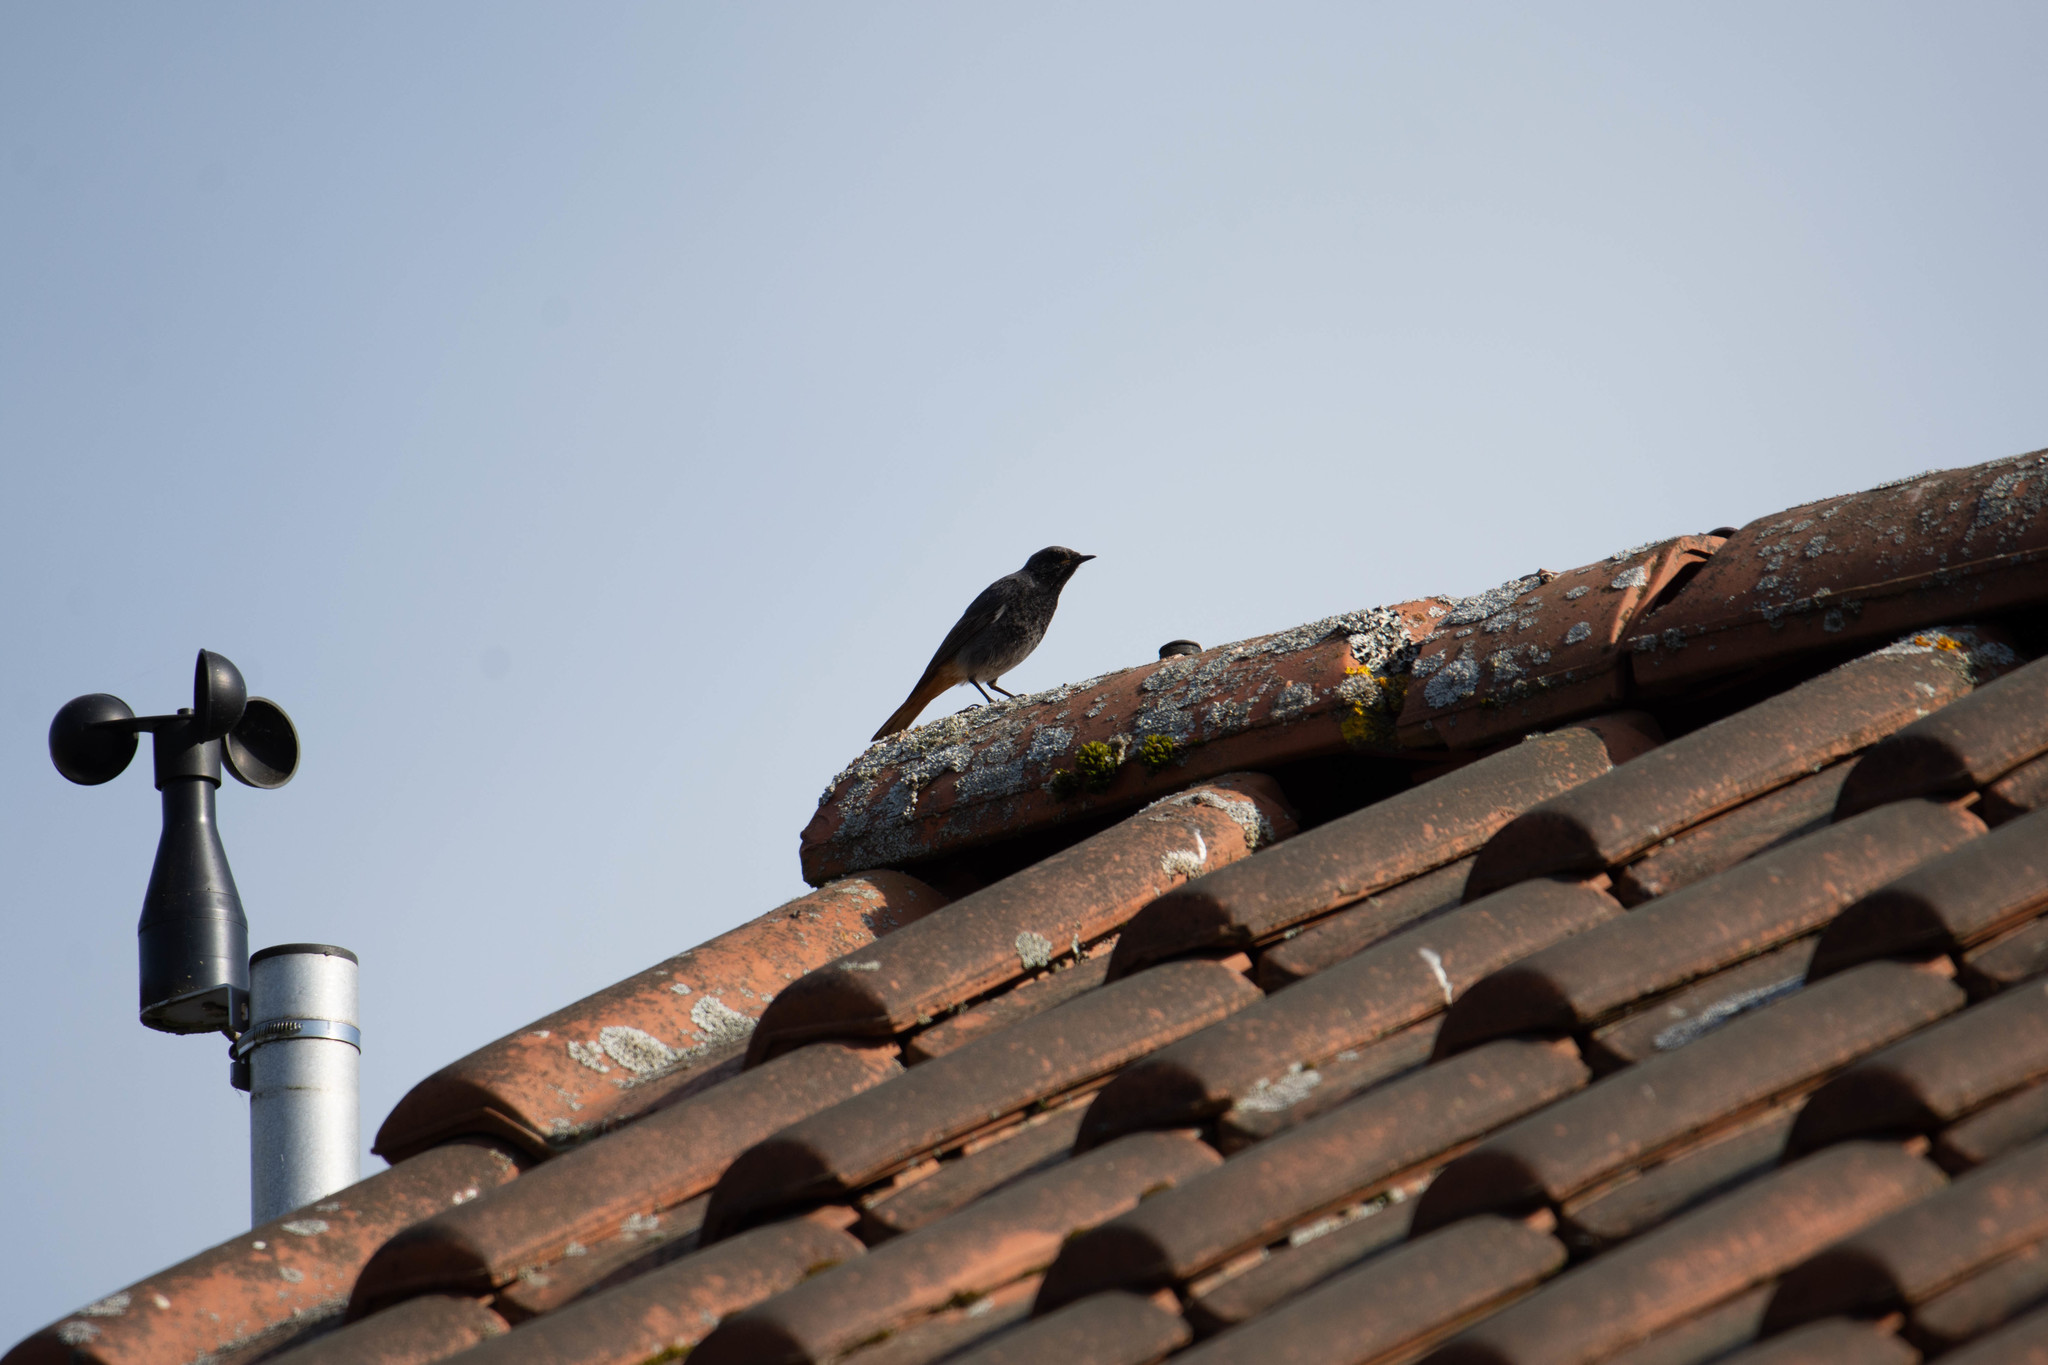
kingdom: Animalia
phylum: Chordata
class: Aves
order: Passeriformes
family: Muscicapidae
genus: Phoenicurus
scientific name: Phoenicurus ochruros
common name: Black redstart
